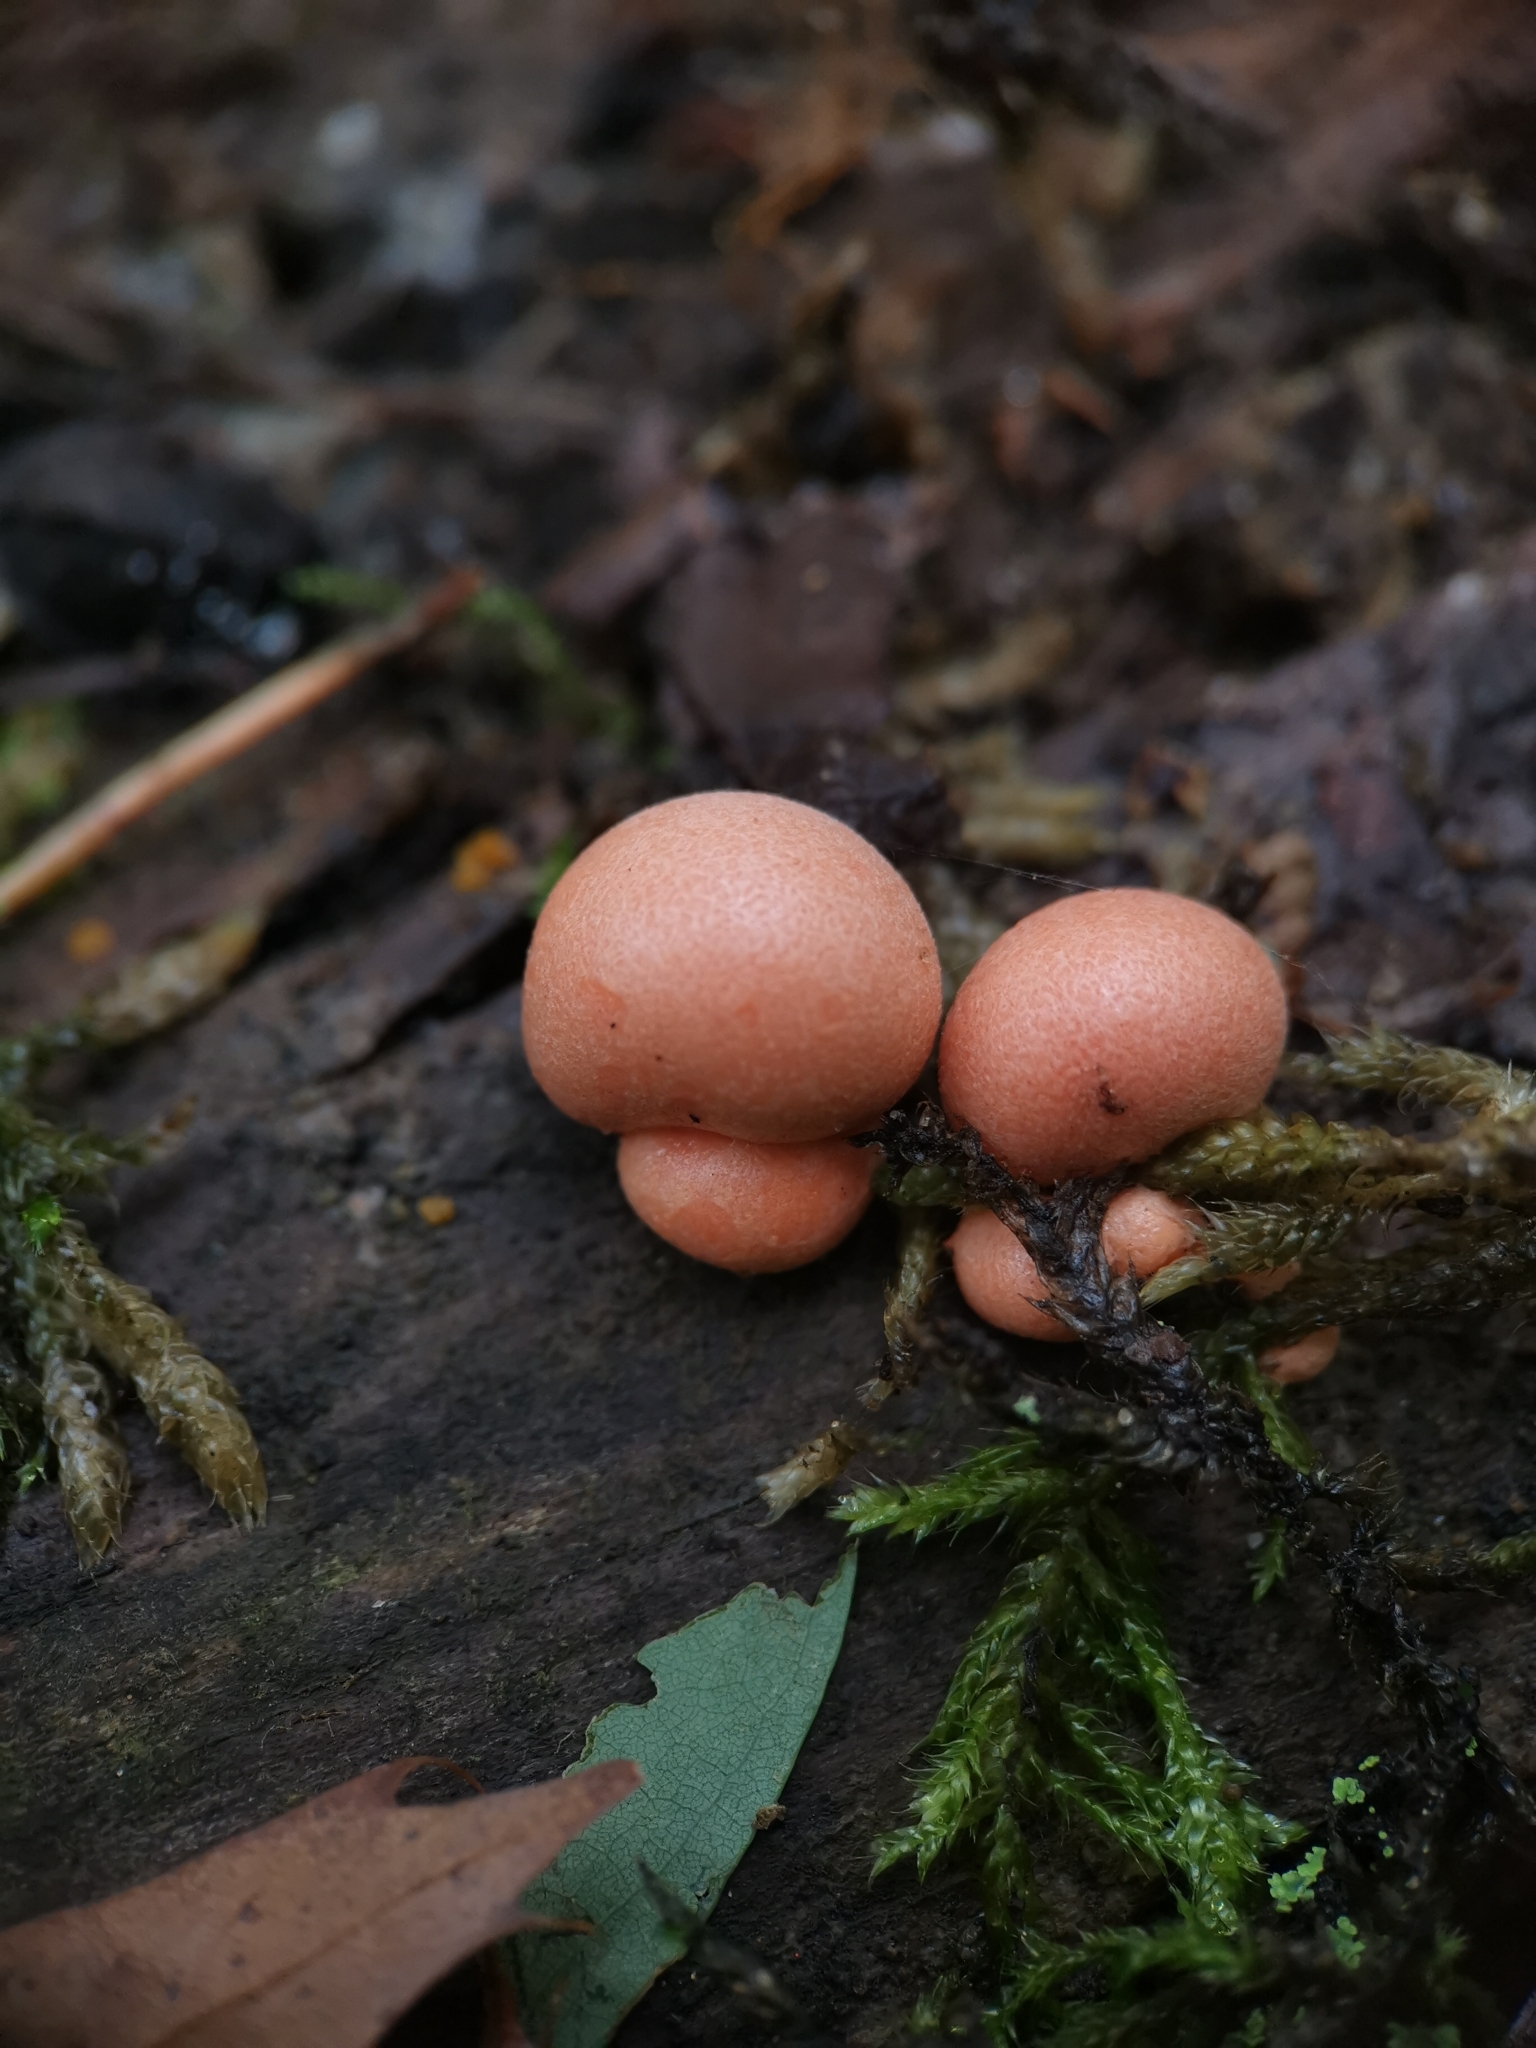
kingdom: Protozoa
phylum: Mycetozoa
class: Myxomycetes
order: Cribrariales
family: Tubiferaceae
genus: Lycogala
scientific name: Lycogala epidendrum
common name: Wolf's milk
